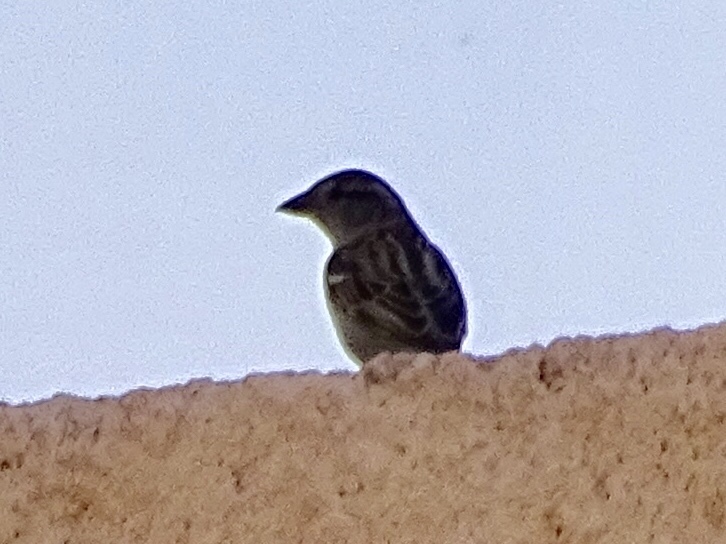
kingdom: Animalia
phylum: Chordata
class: Aves
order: Passeriformes
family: Passeridae
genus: Passer
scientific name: Passer domesticus
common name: House sparrow
